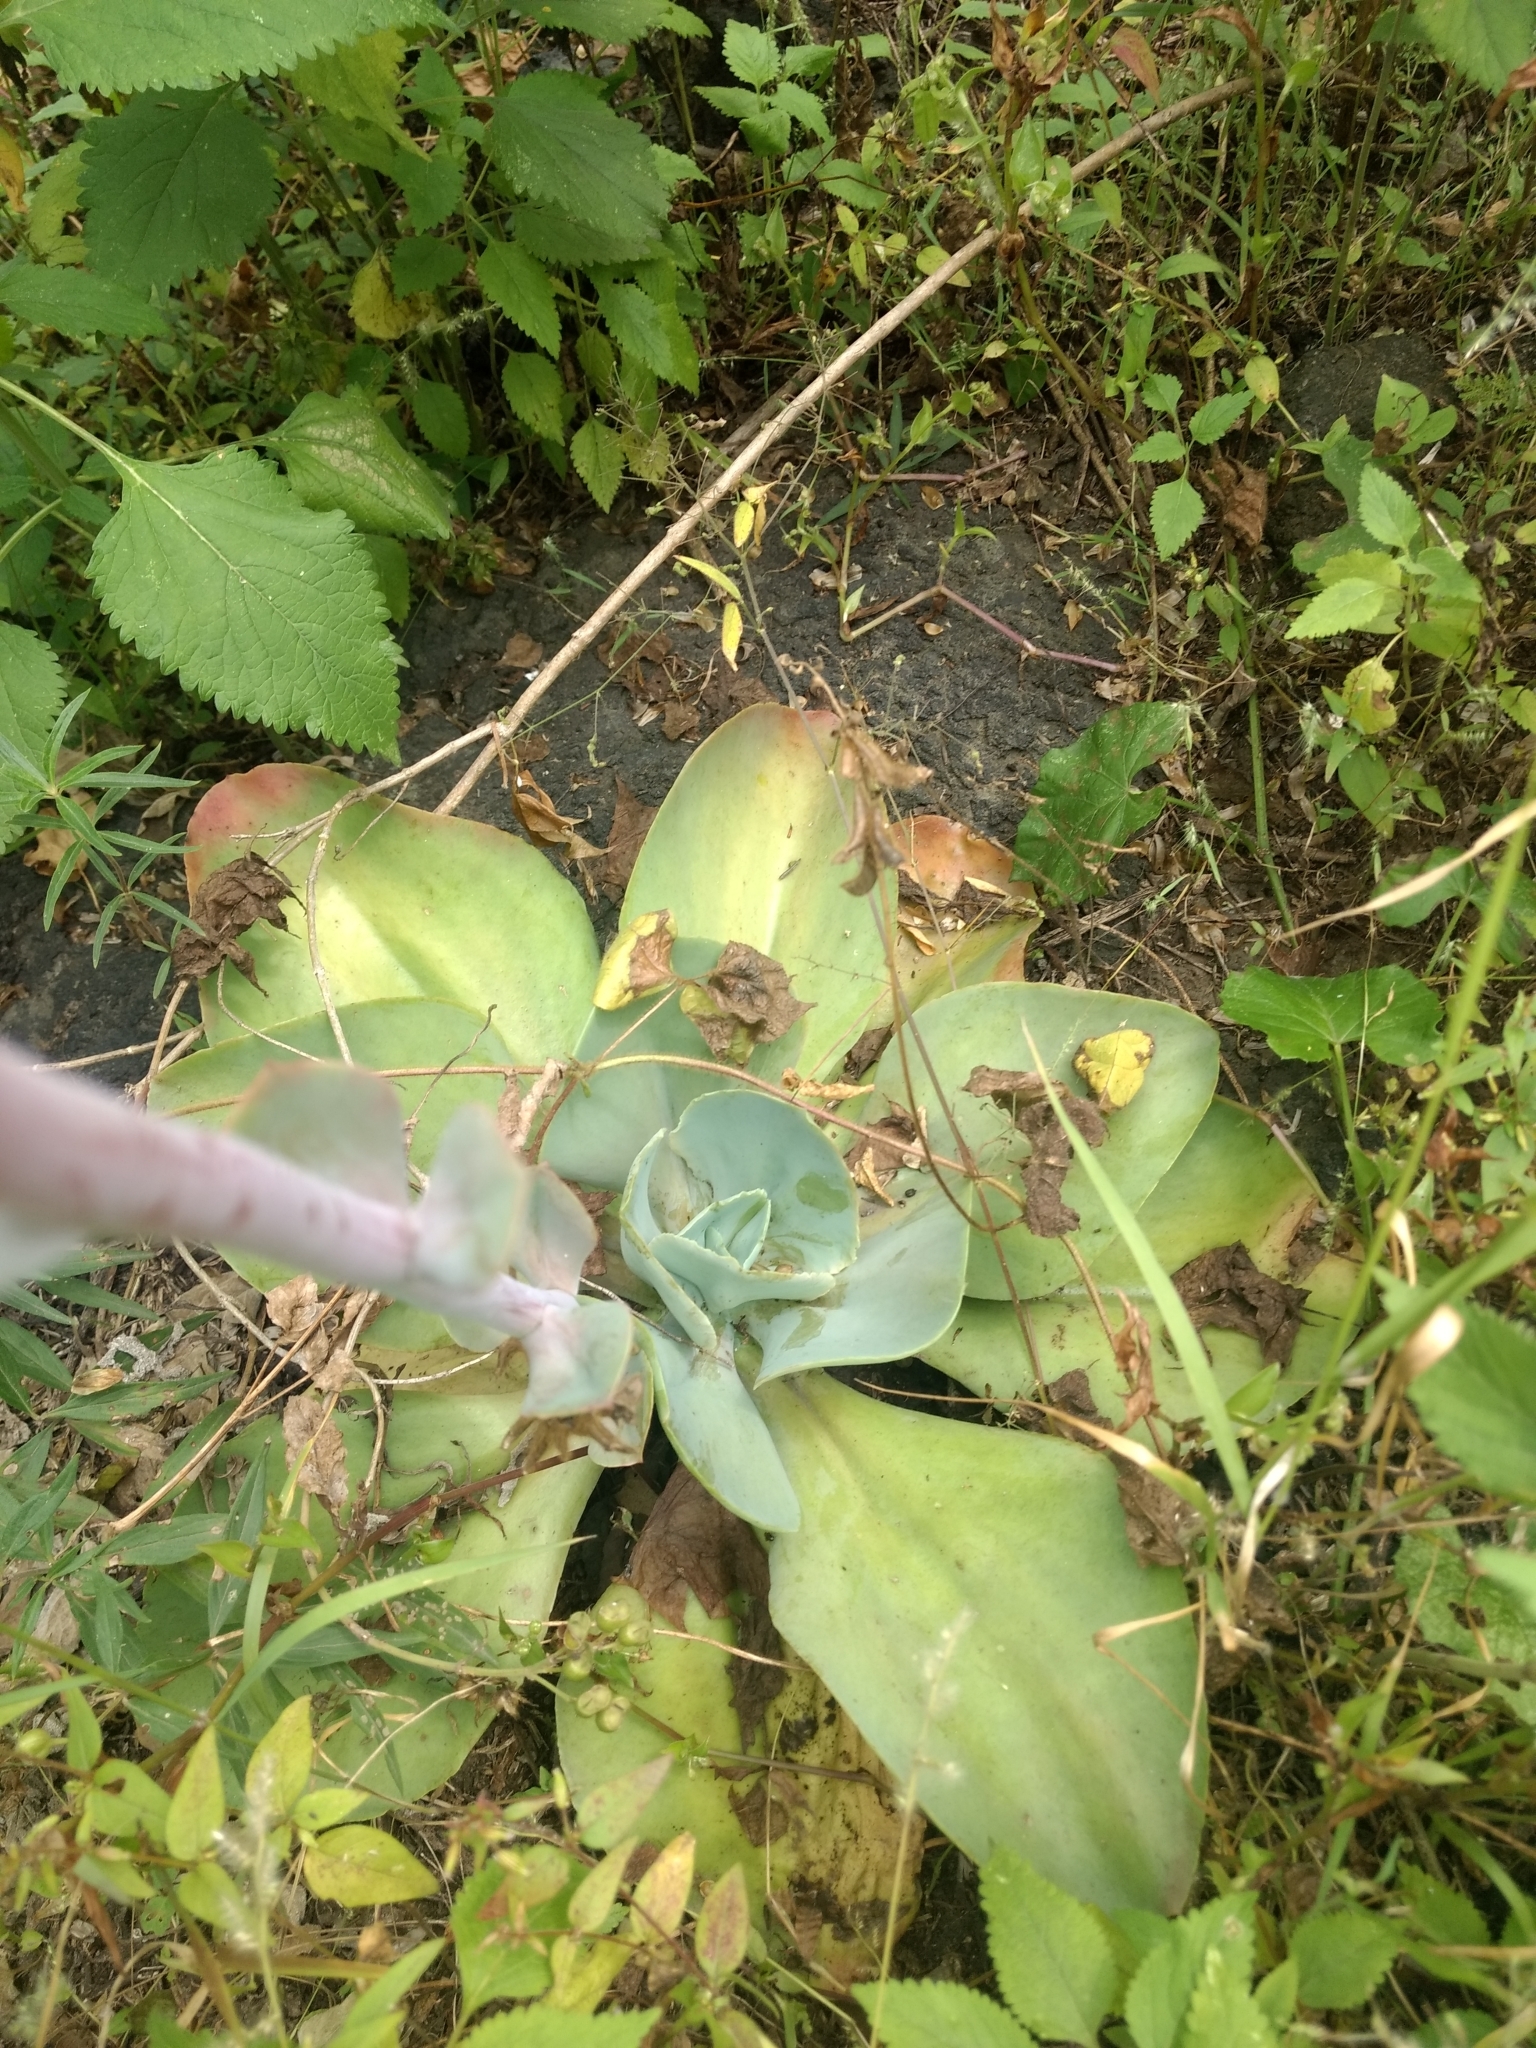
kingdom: Plantae
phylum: Tracheophyta
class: Magnoliopsida
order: Saxifragales
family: Crassulaceae
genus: Echeveria
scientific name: Echeveria gibbiflora
